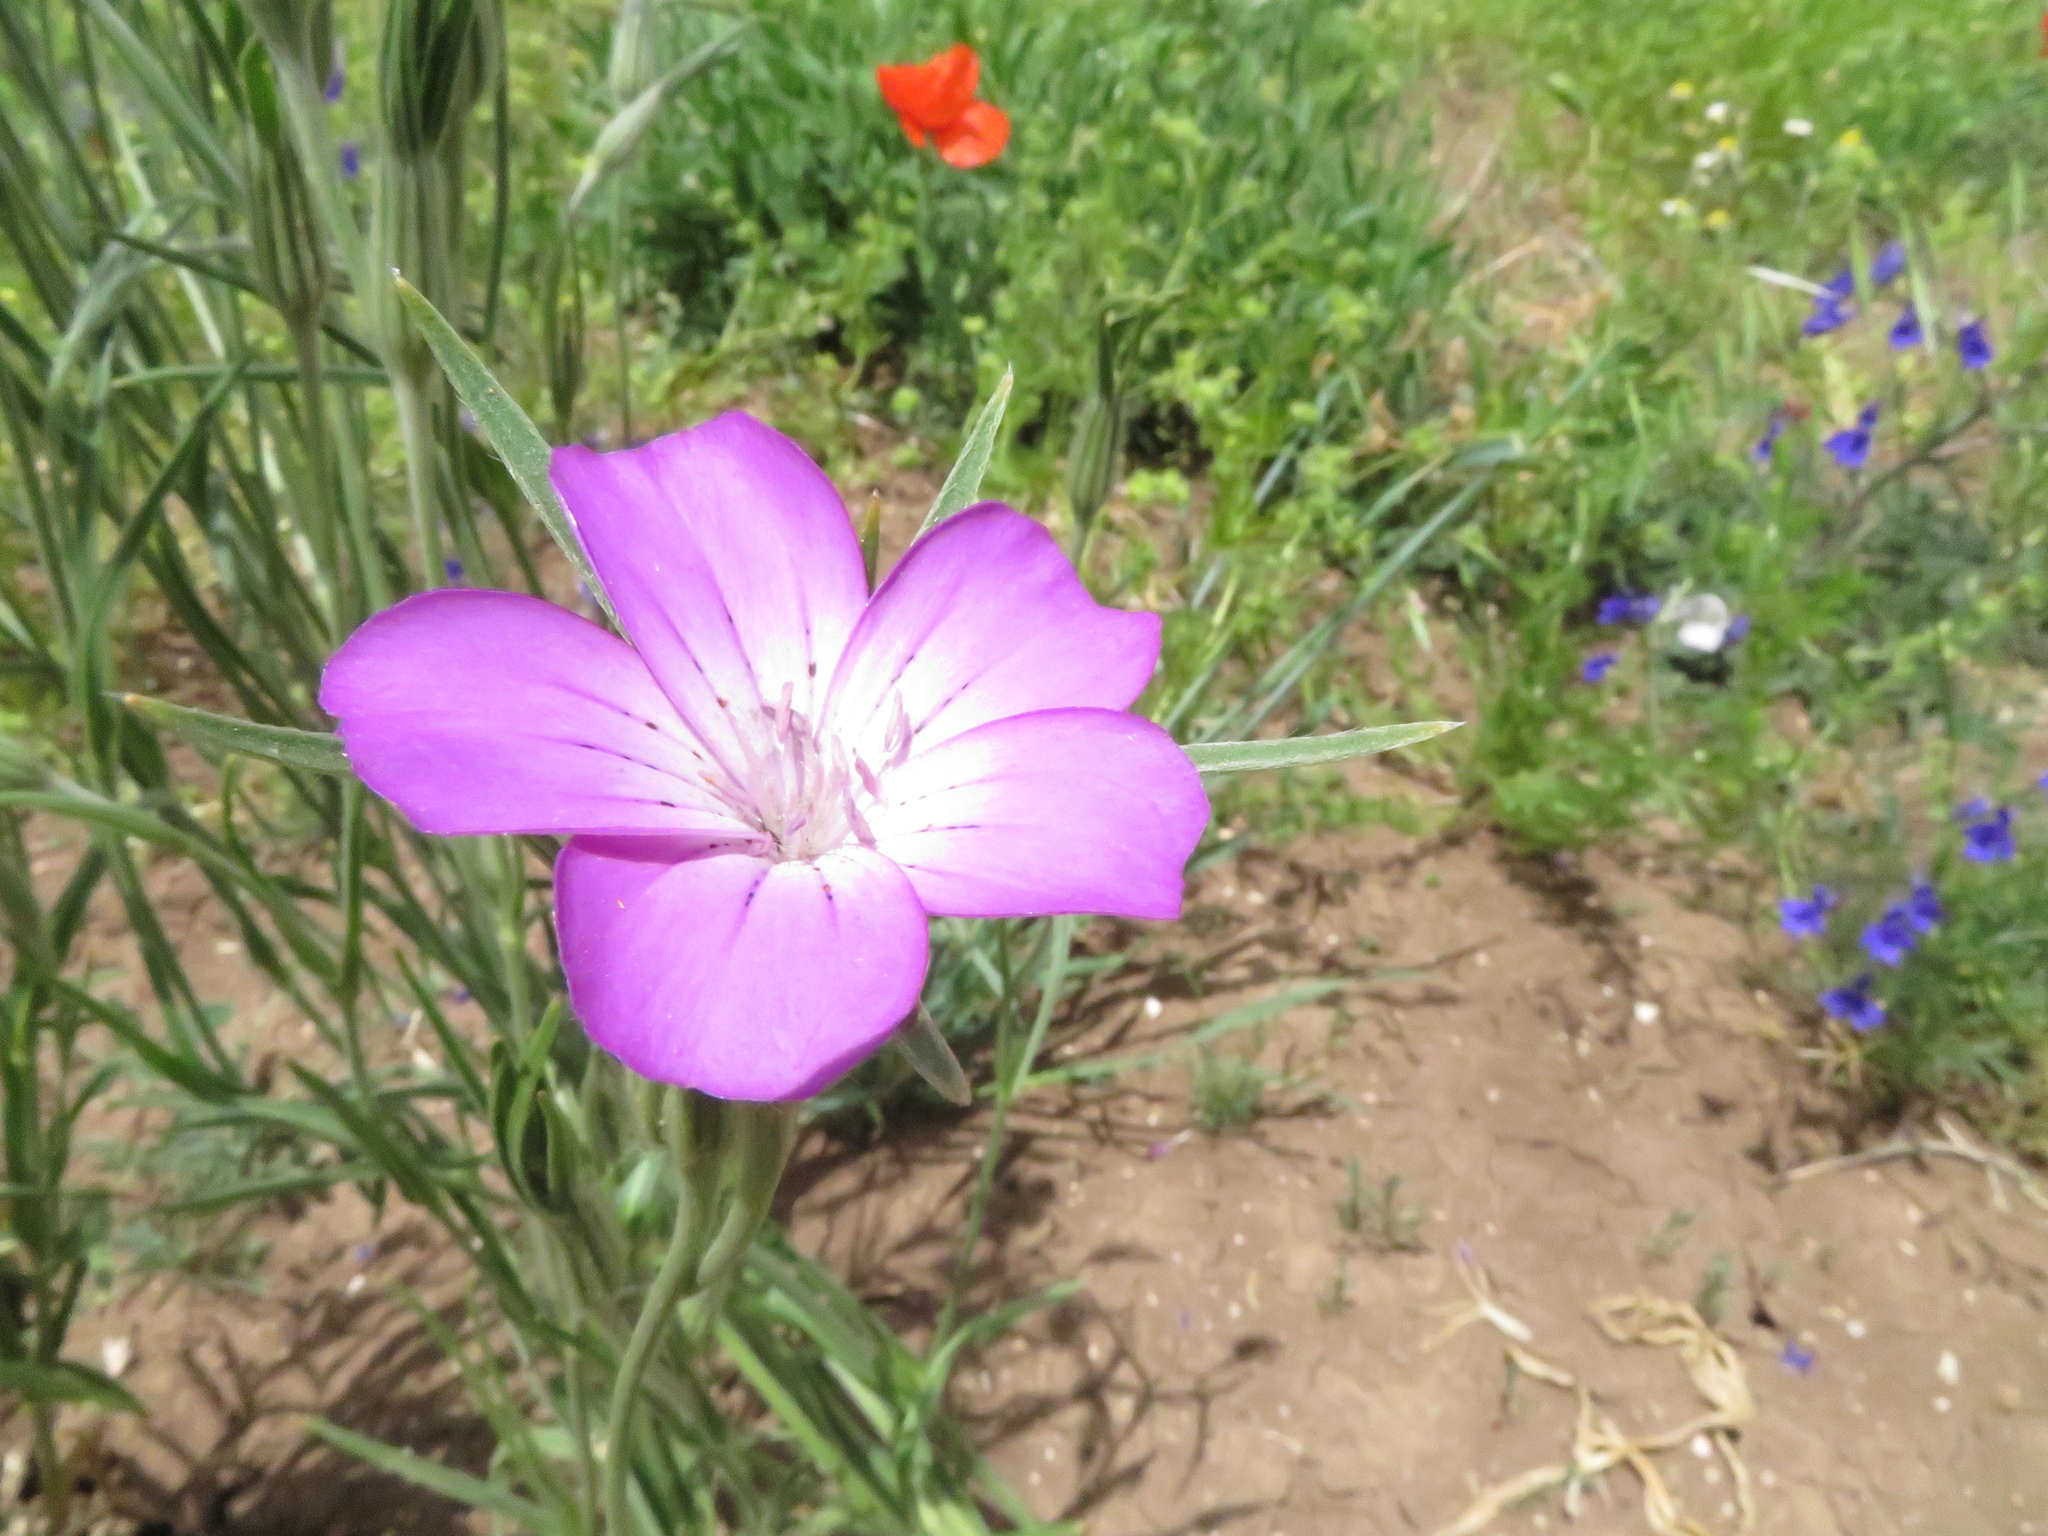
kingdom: Plantae
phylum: Tracheophyta
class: Magnoliopsida
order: Caryophyllales
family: Caryophyllaceae
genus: Agrostemma
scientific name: Agrostemma githago
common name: Common corncockle
